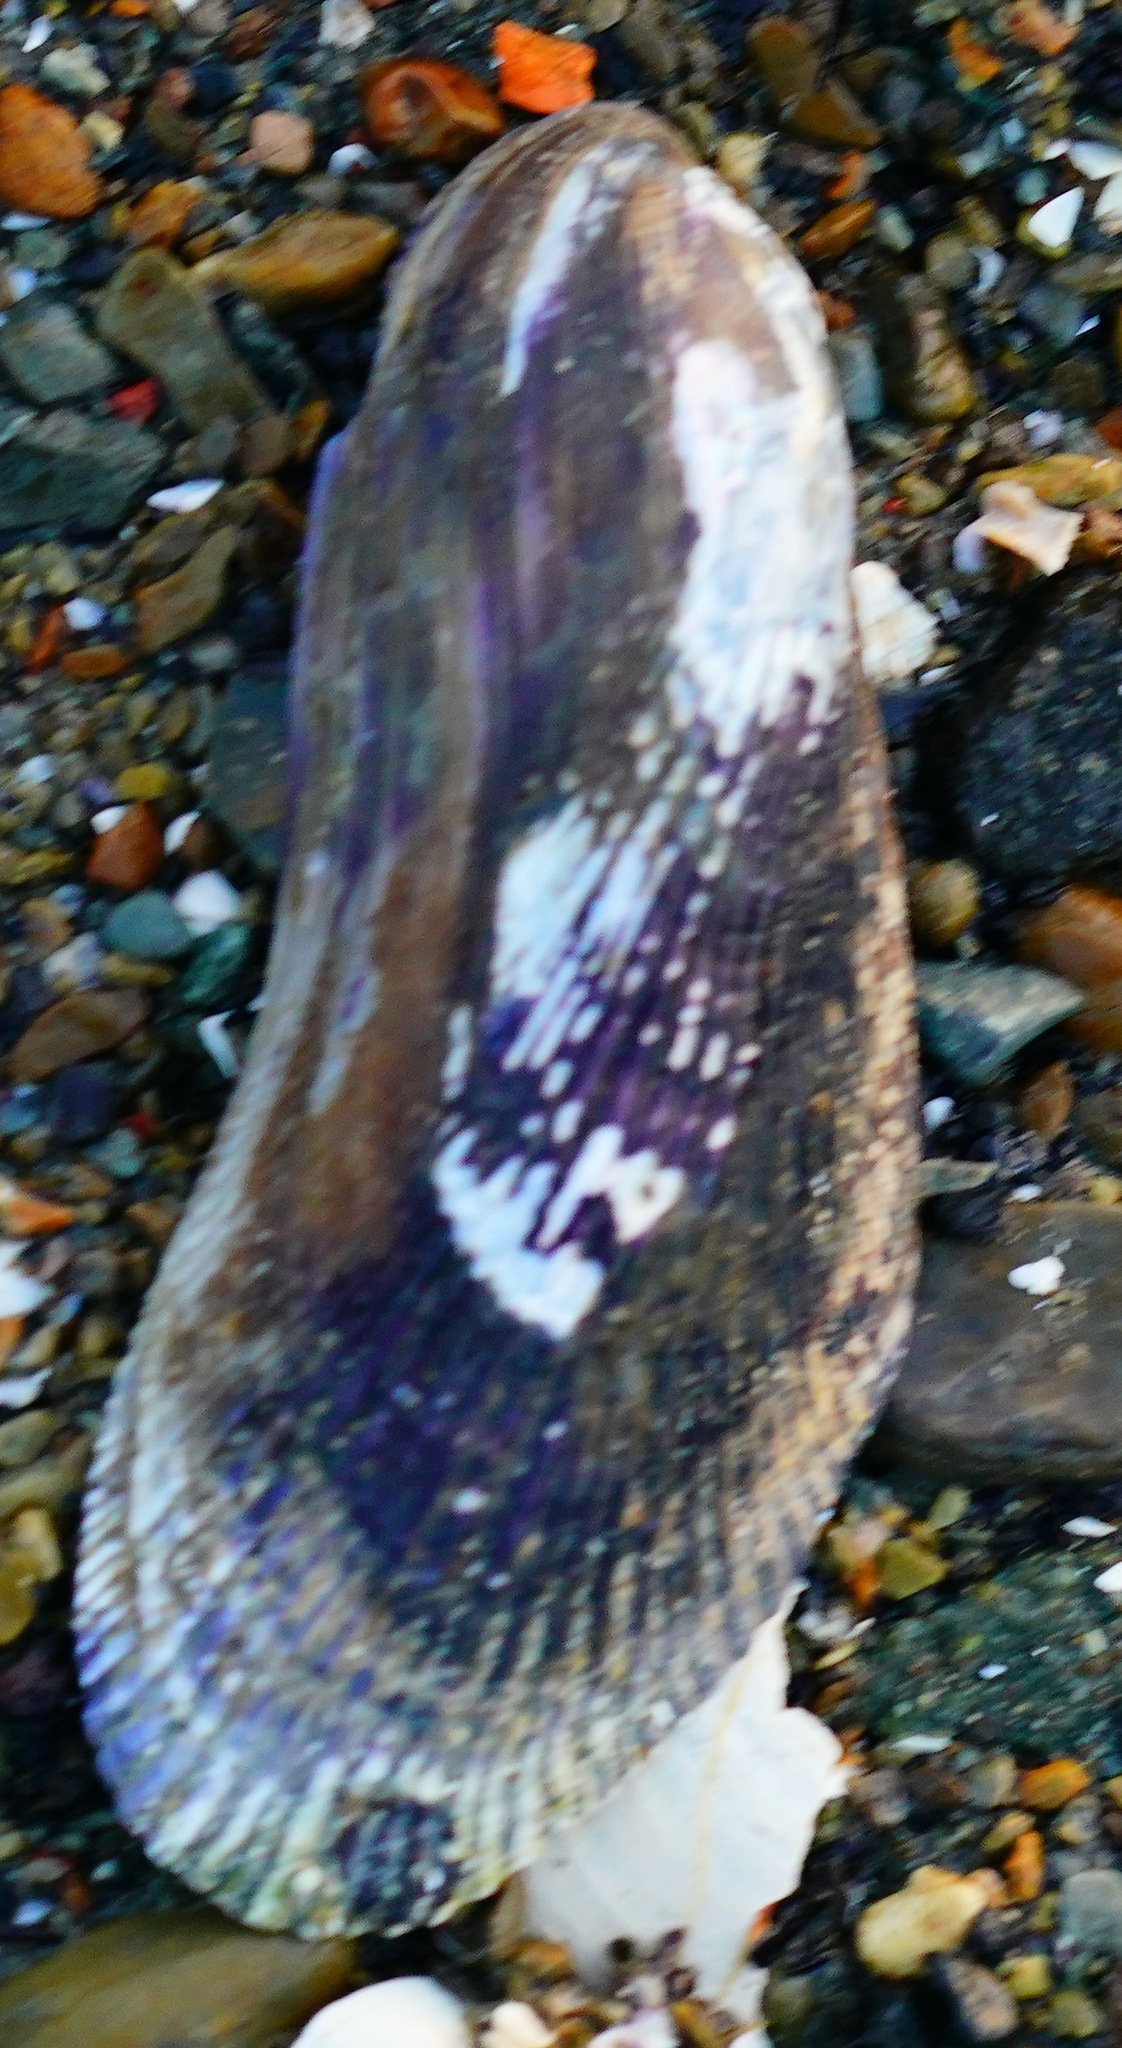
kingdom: Animalia
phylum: Mollusca
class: Bivalvia
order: Mytilida
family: Mytilidae
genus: Geukensia
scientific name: Geukensia demissa
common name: Ribbed mussel
